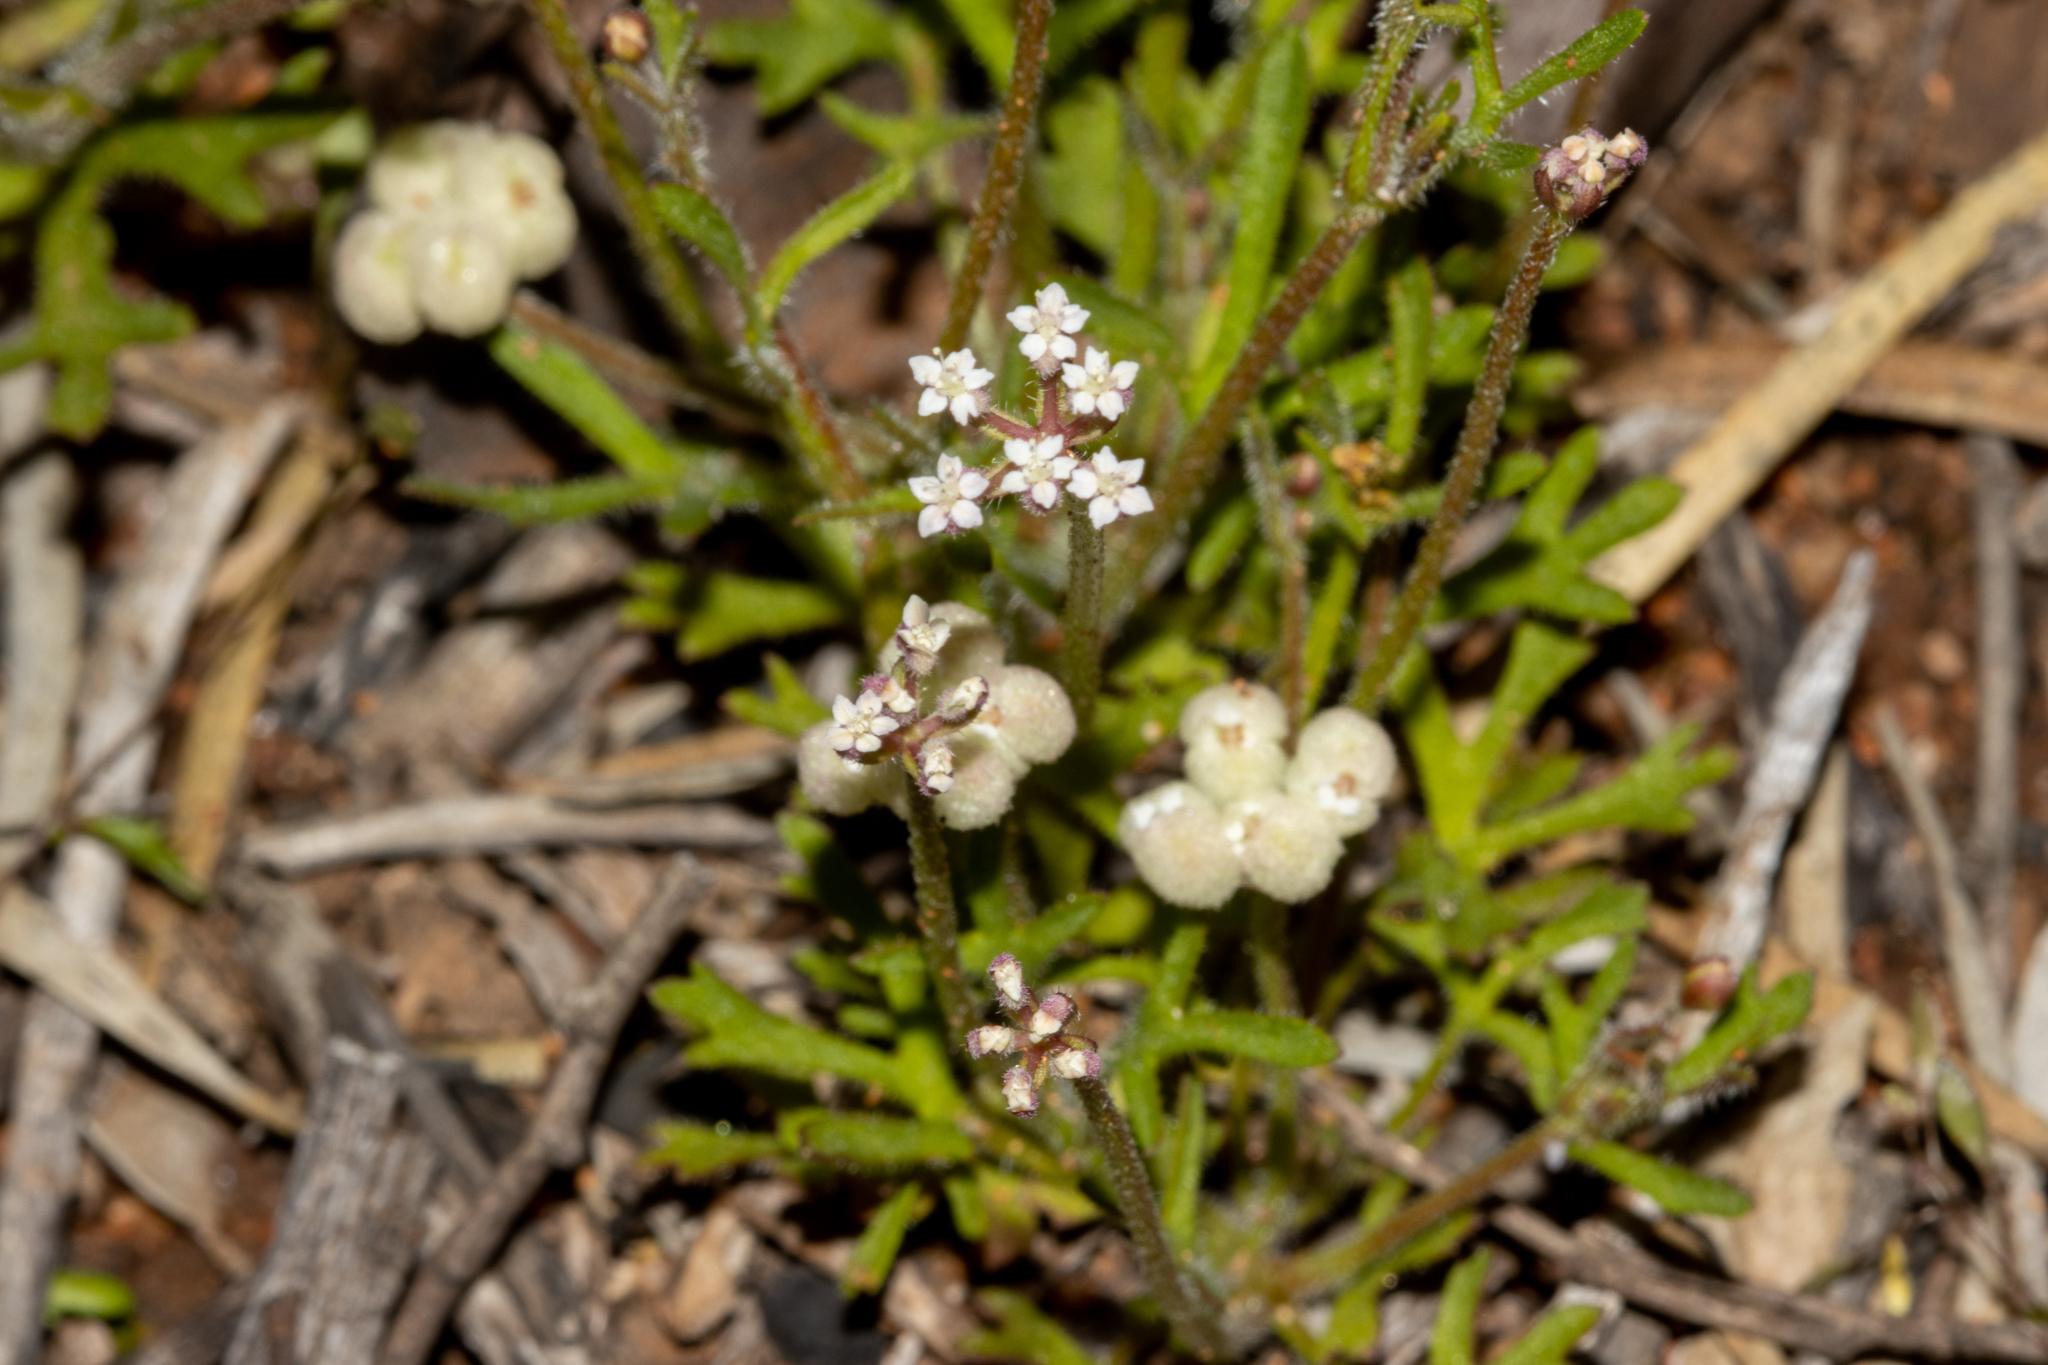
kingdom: Plantae
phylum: Tracheophyta
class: Magnoliopsida
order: Apiales
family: Araliaceae
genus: Trachymene
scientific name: Trachymene ornata
